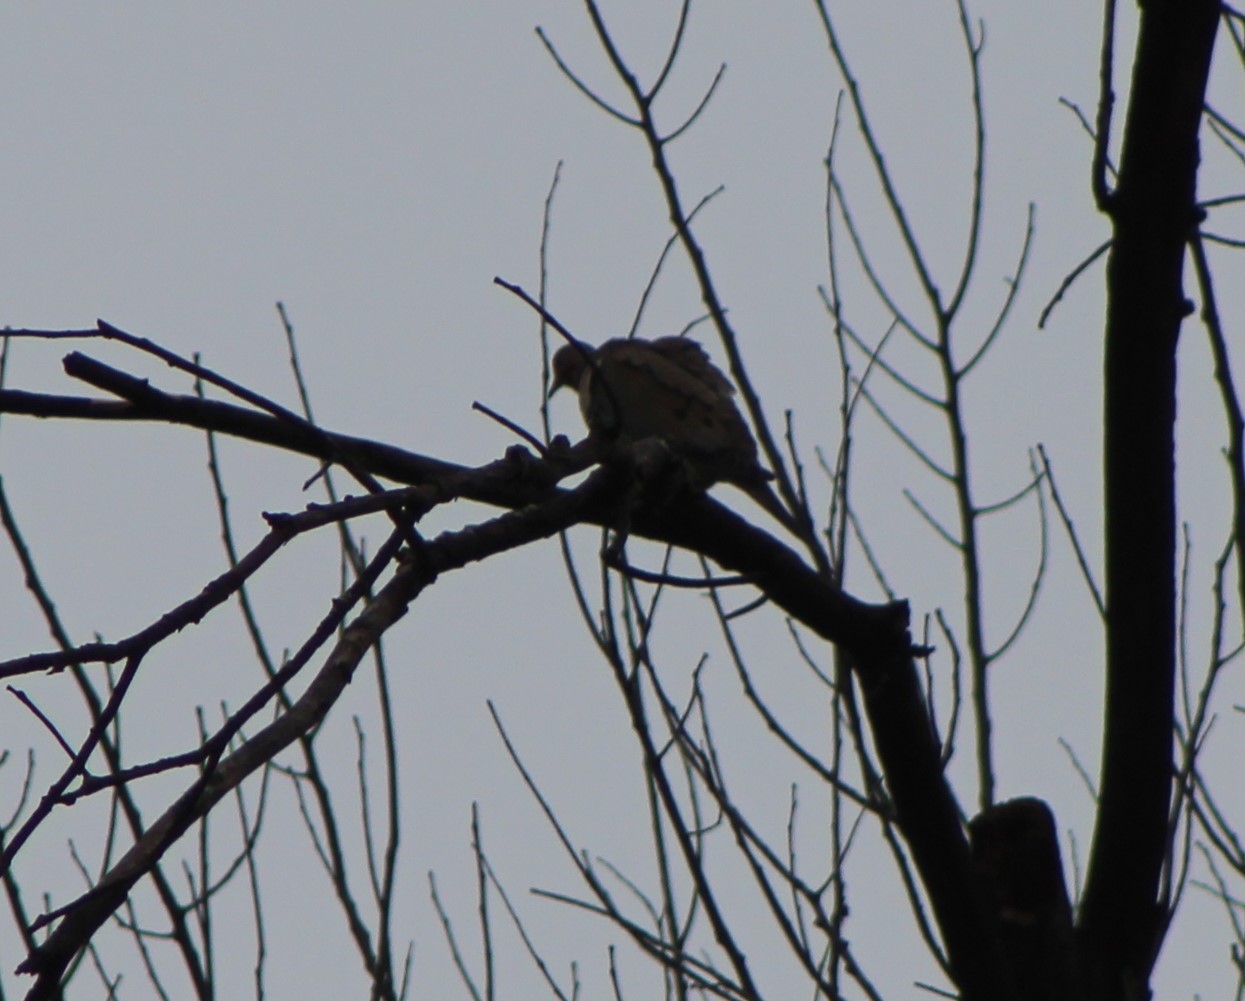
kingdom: Animalia
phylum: Chordata
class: Aves
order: Columbiformes
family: Columbidae
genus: Zenaida
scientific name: Zenaida macroura
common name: Mourning dove
